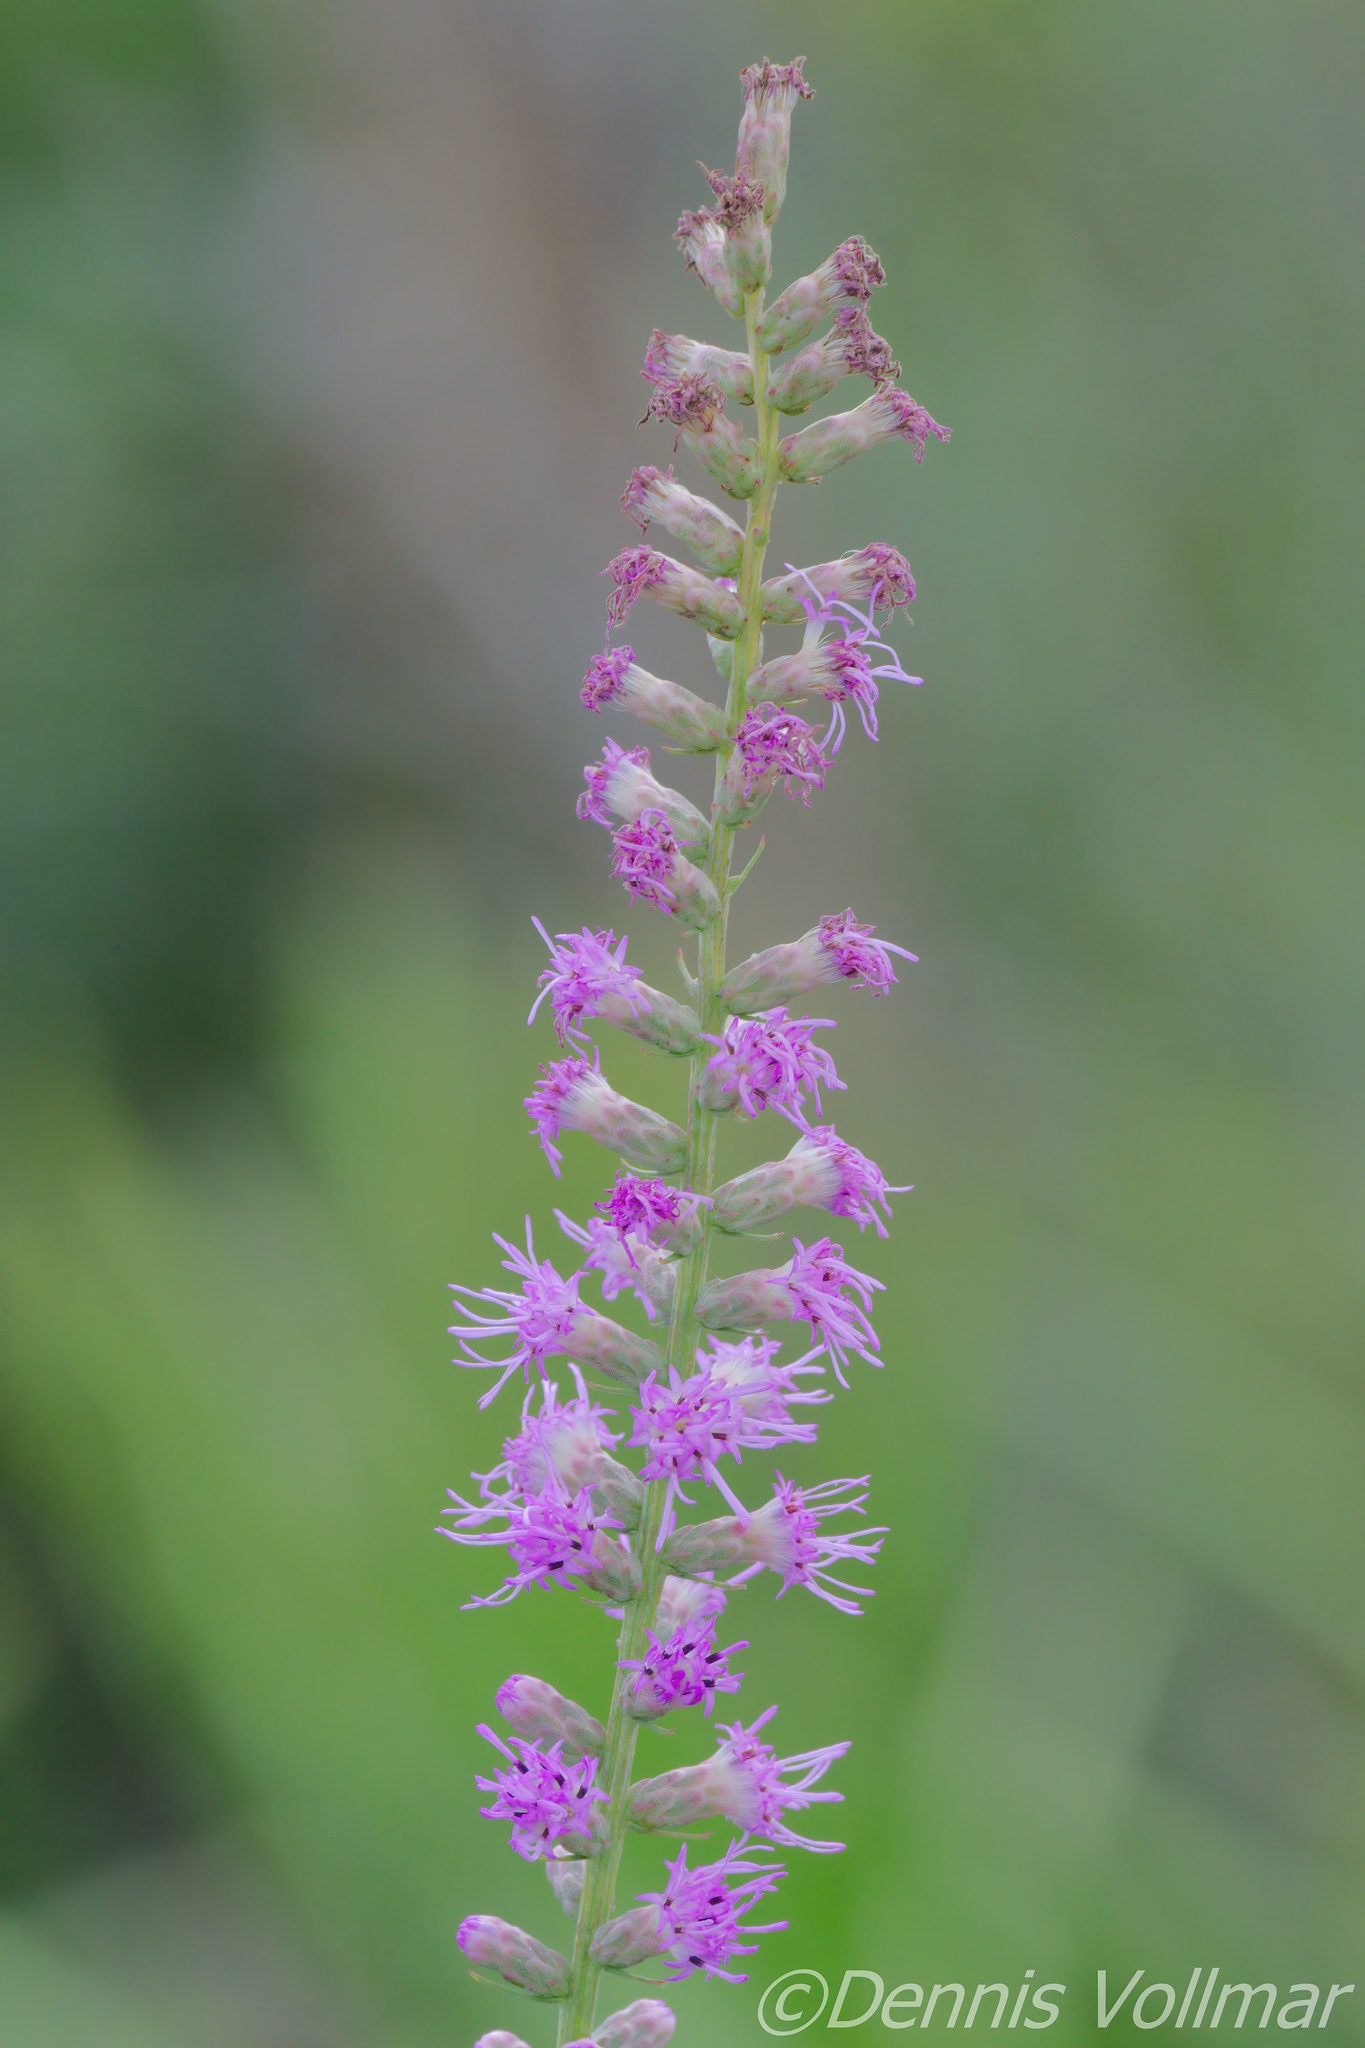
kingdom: Plantae
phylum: Tracheophyta
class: Magnoliopsida
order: Asterales
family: Asteraceae
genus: Liatris
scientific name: Liatris spicata
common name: Florist gayfeather
